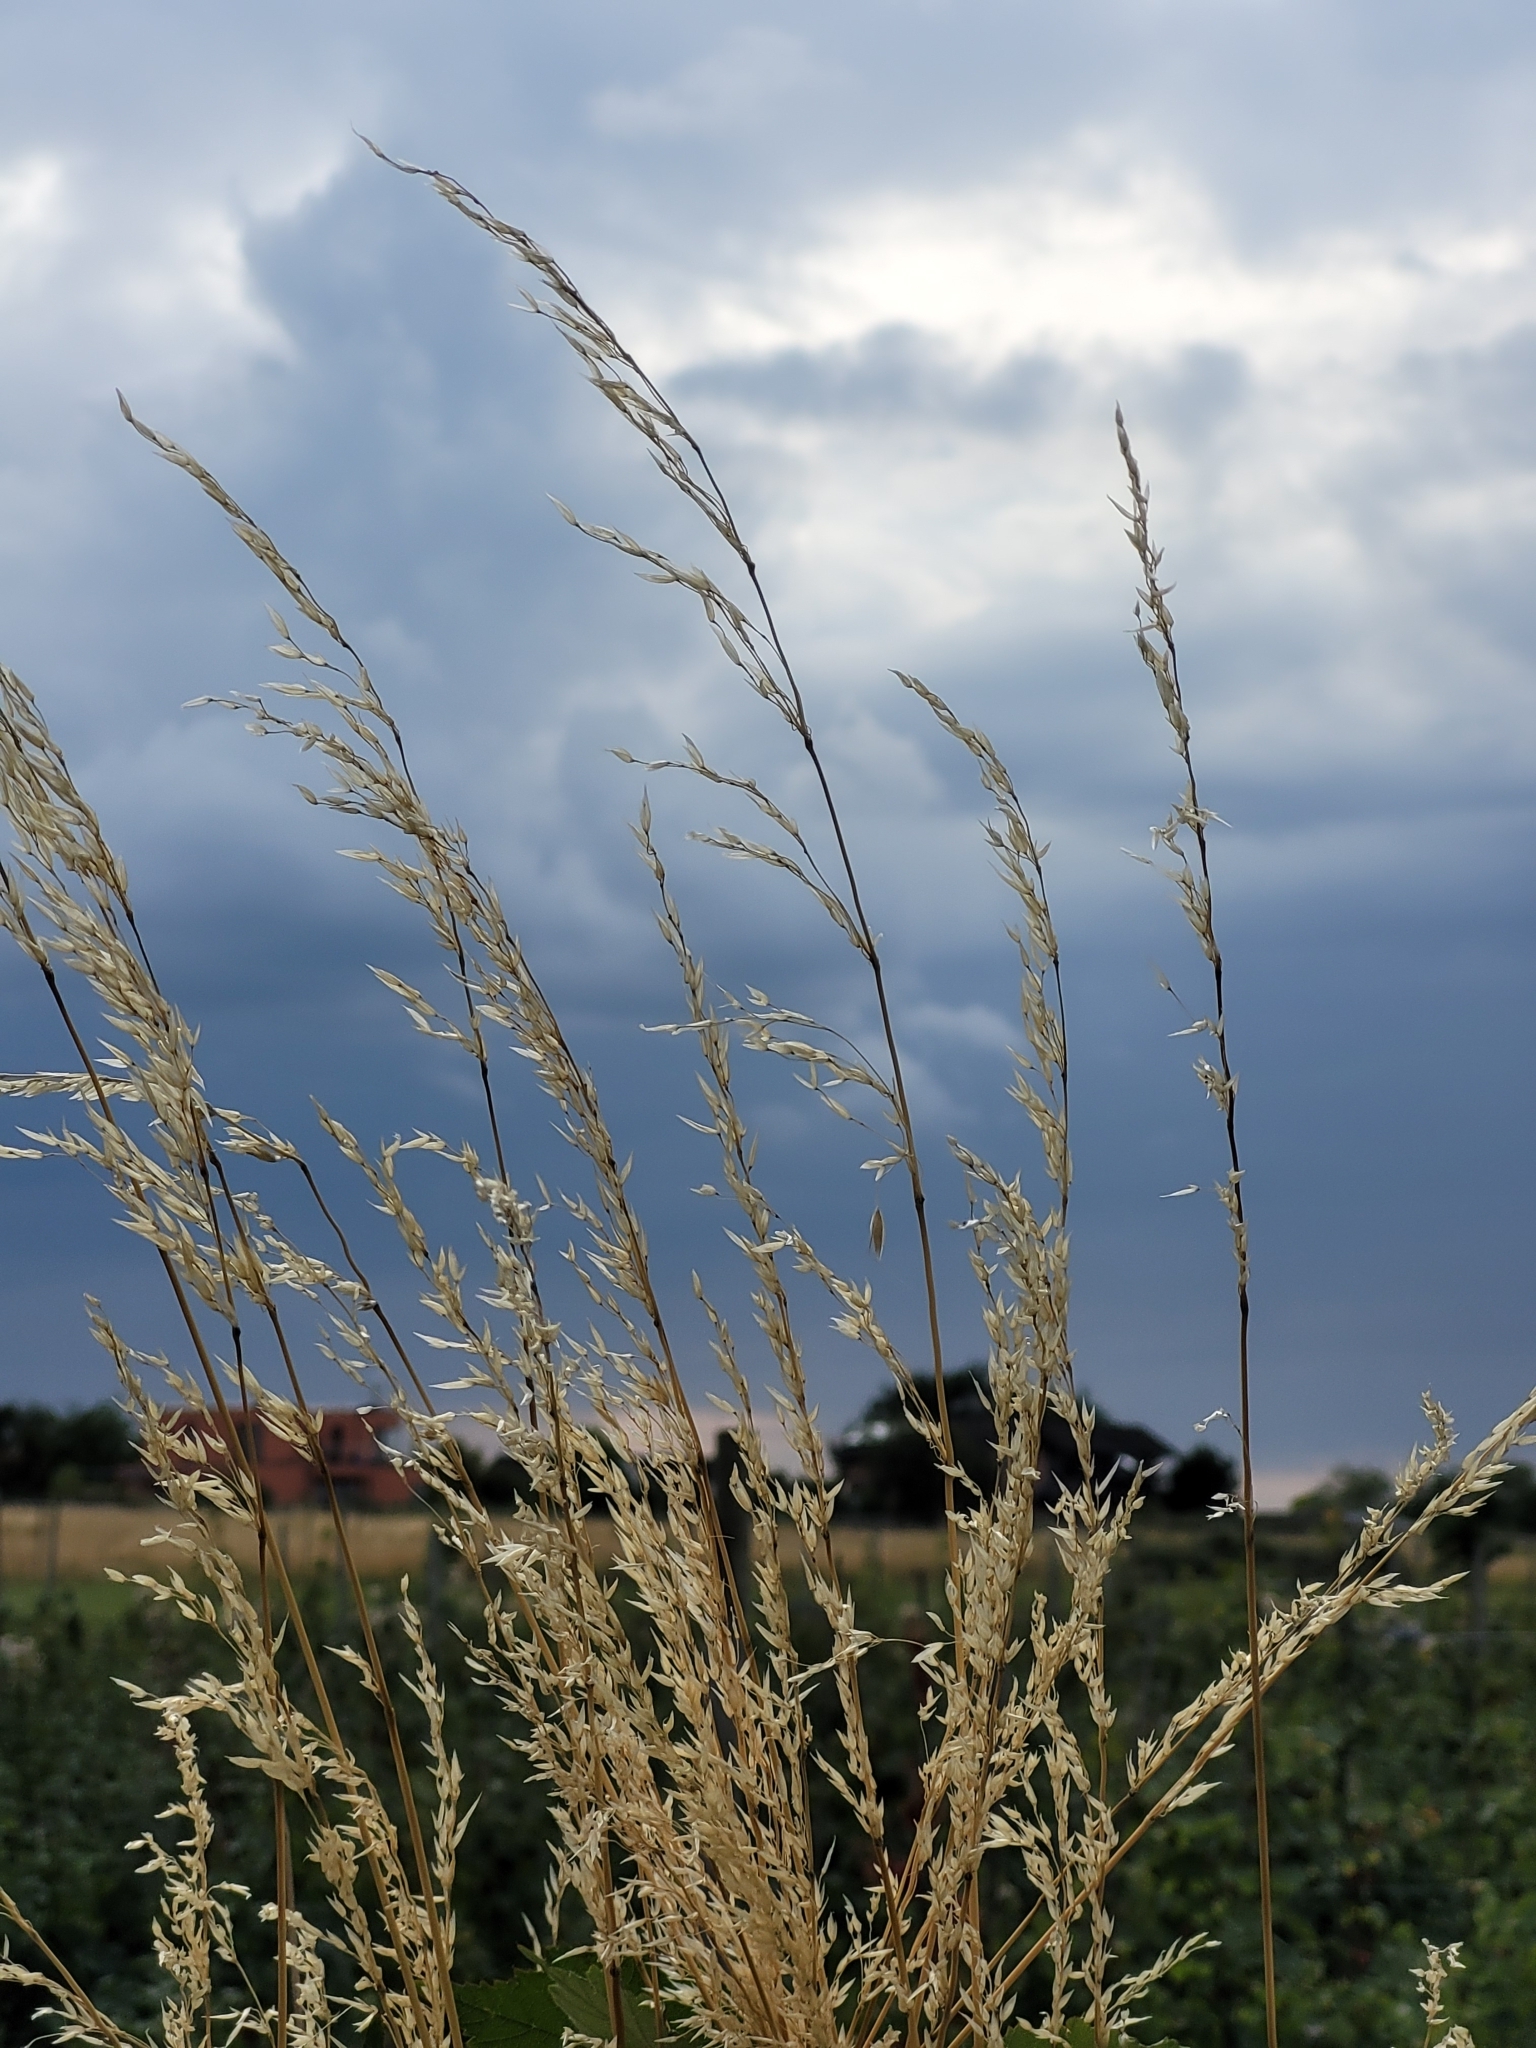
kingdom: Plantae
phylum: Tracheophyta
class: Liliopsida
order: Poales
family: Poaceae
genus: Arrhenatherum
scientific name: Arrhenatherum elatius
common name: Tall oatgrass
